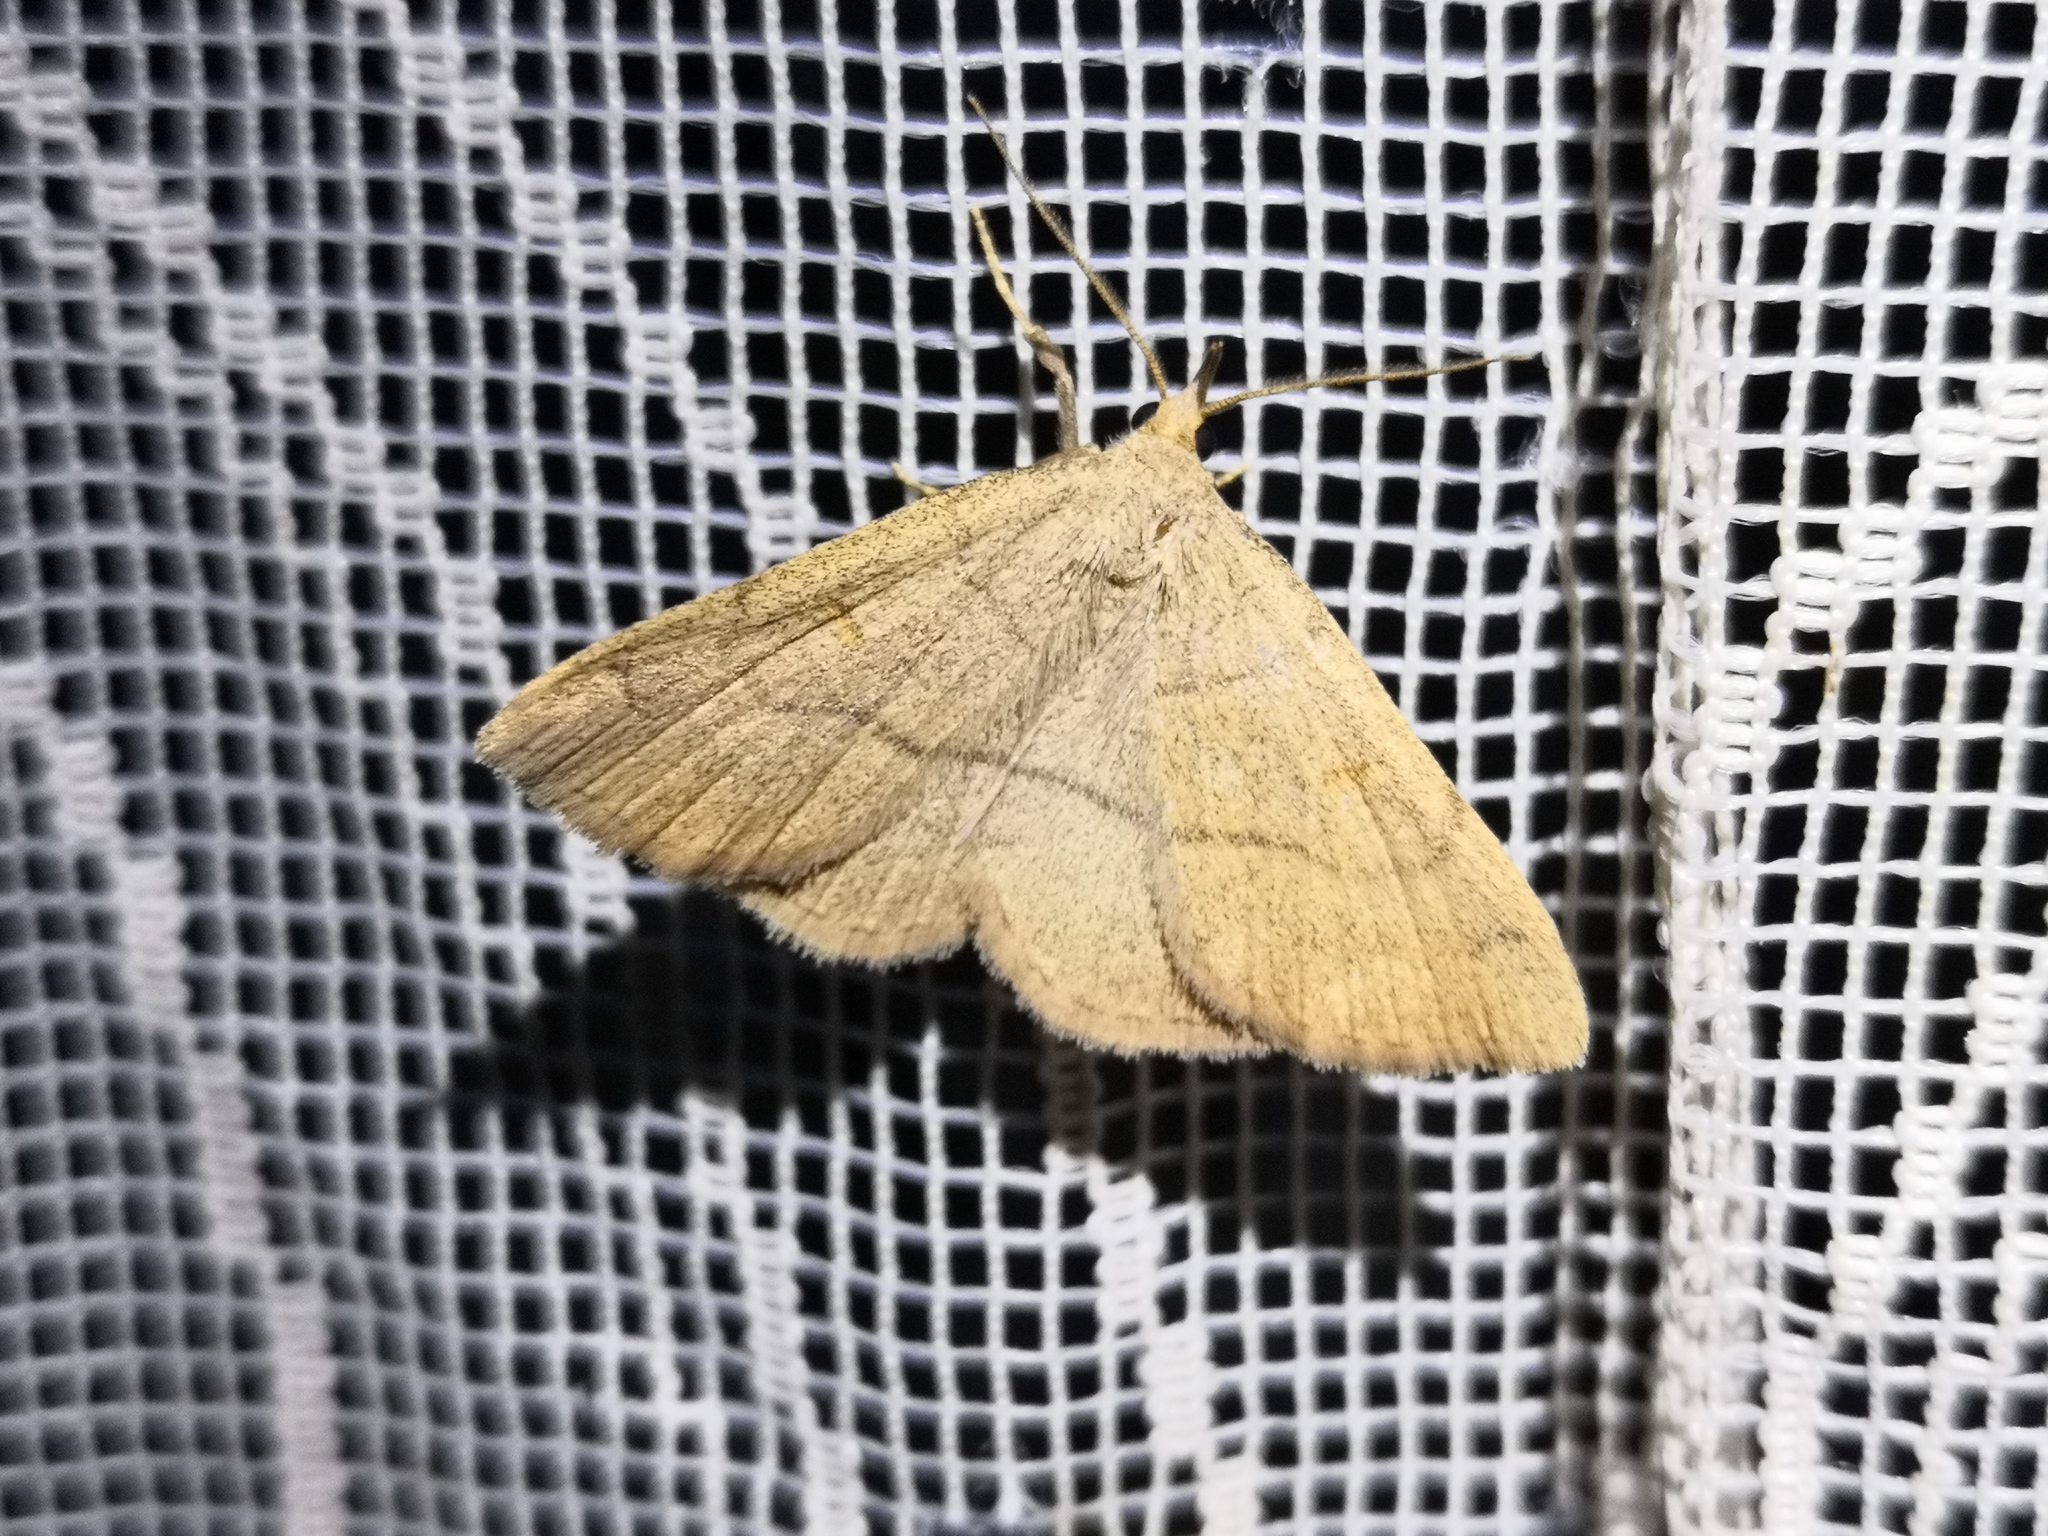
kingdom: Animalia
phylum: Arthropoda
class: Insecta
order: Lepidoptera
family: Erebidae
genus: Paracolax
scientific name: Paracolax tristalis
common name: Clay fan-foot
